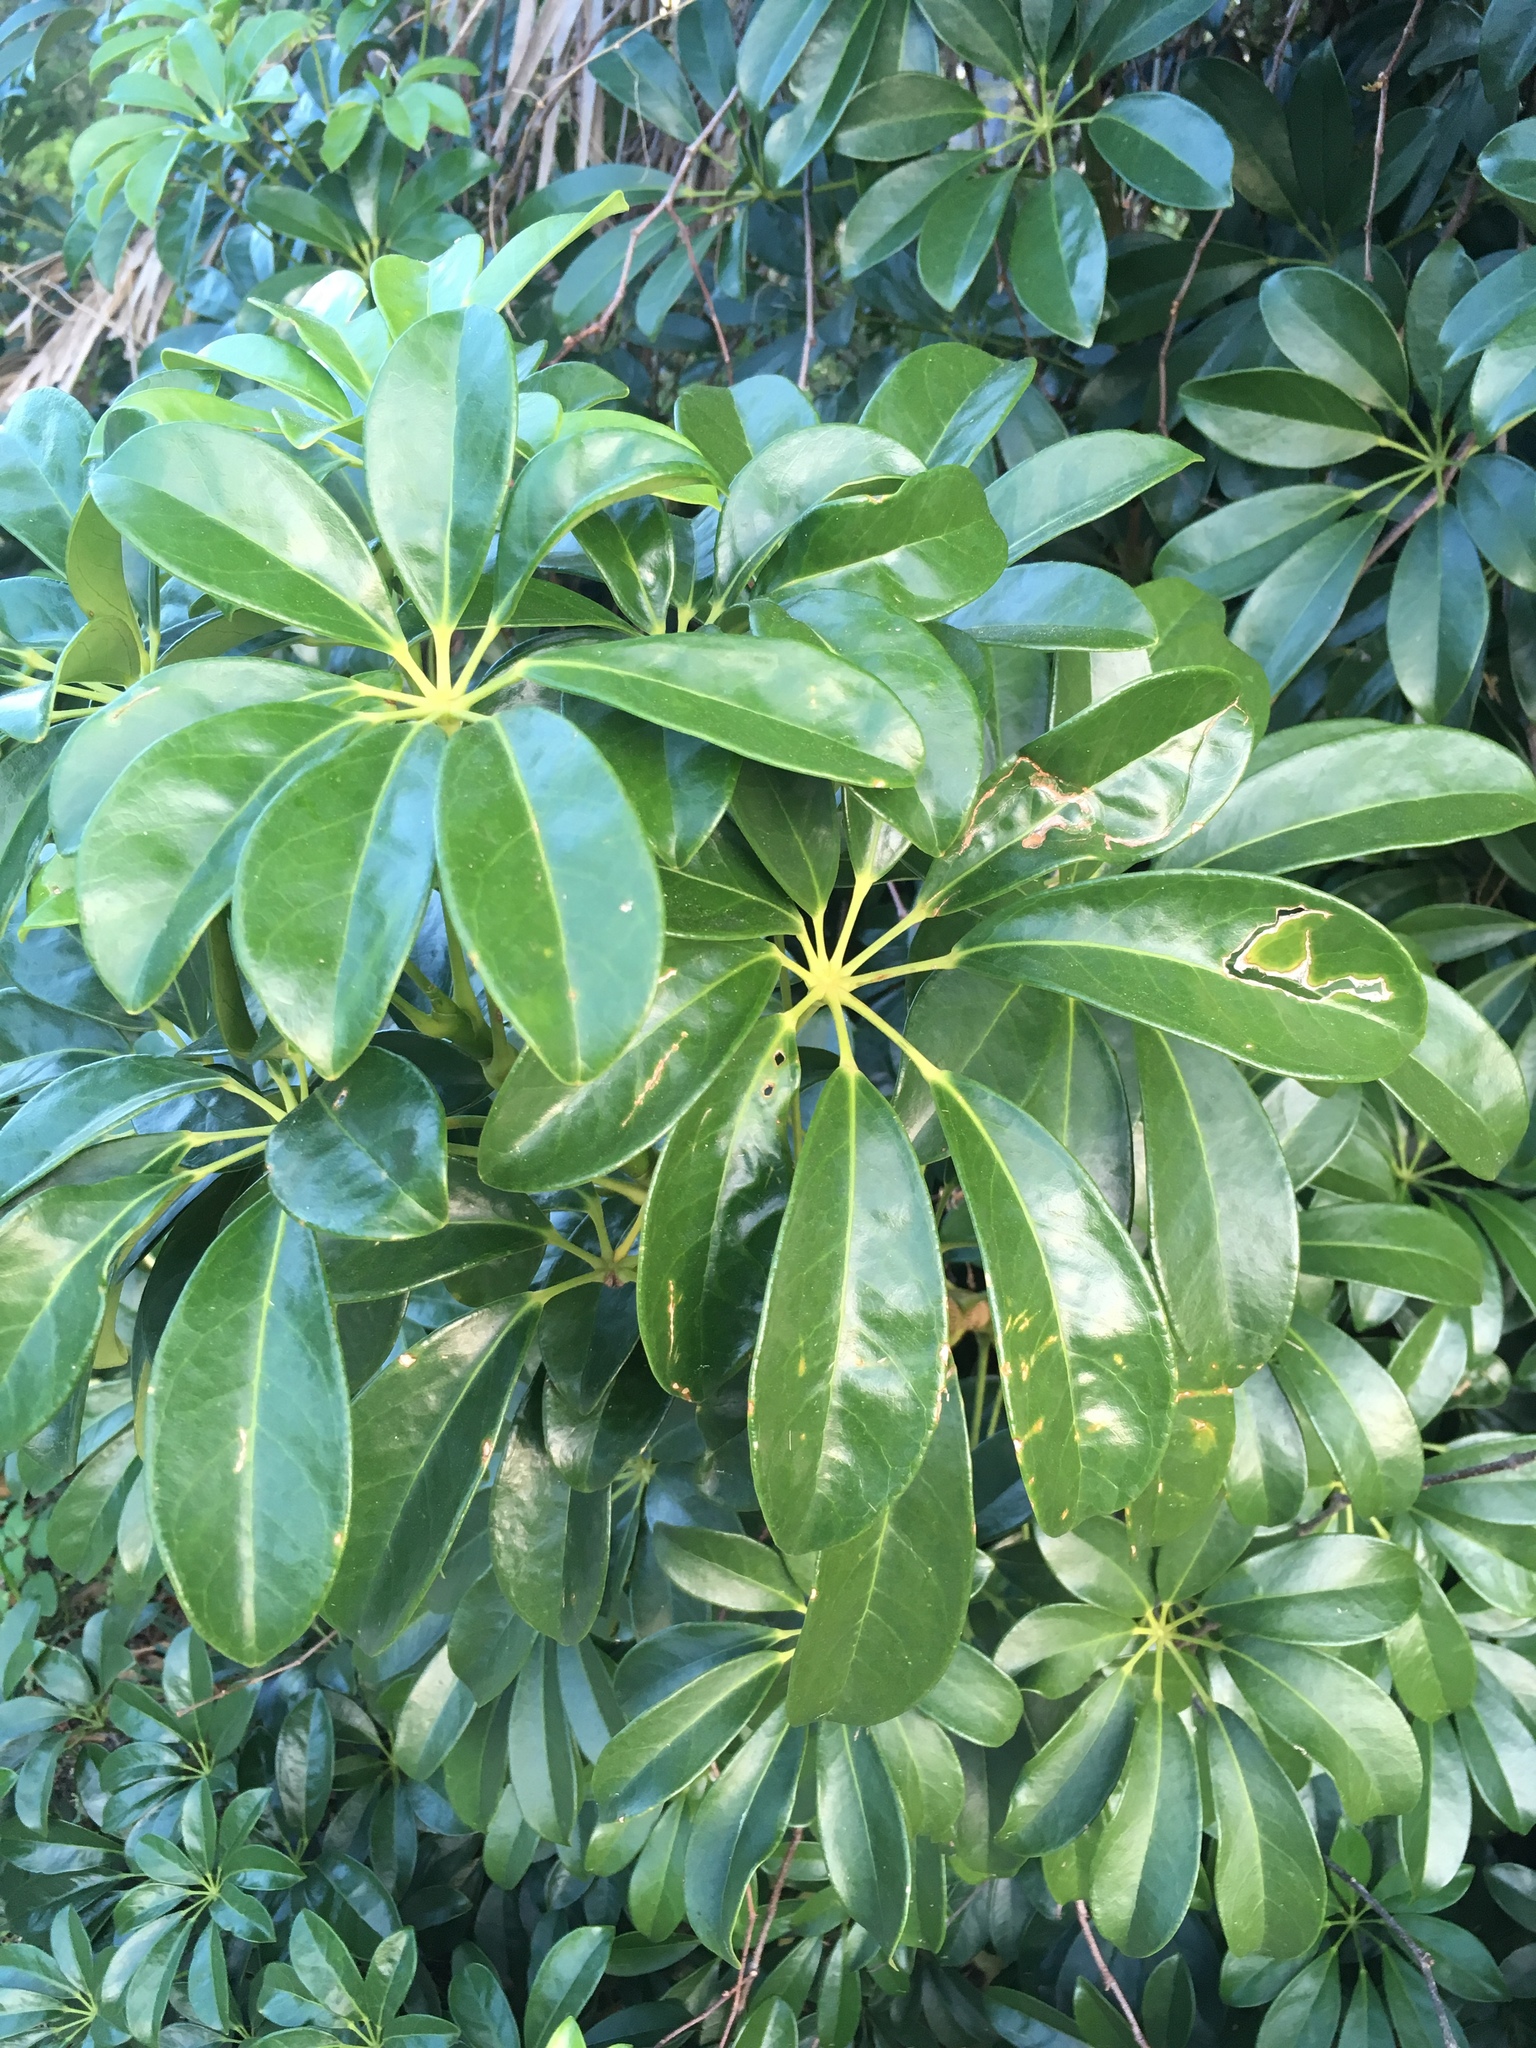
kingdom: Plantae
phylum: Tracheophyta
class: Magnoliopsida
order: Apiales
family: Araliaceae
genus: Heptapleurum
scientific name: Heptapleurum arboricola
